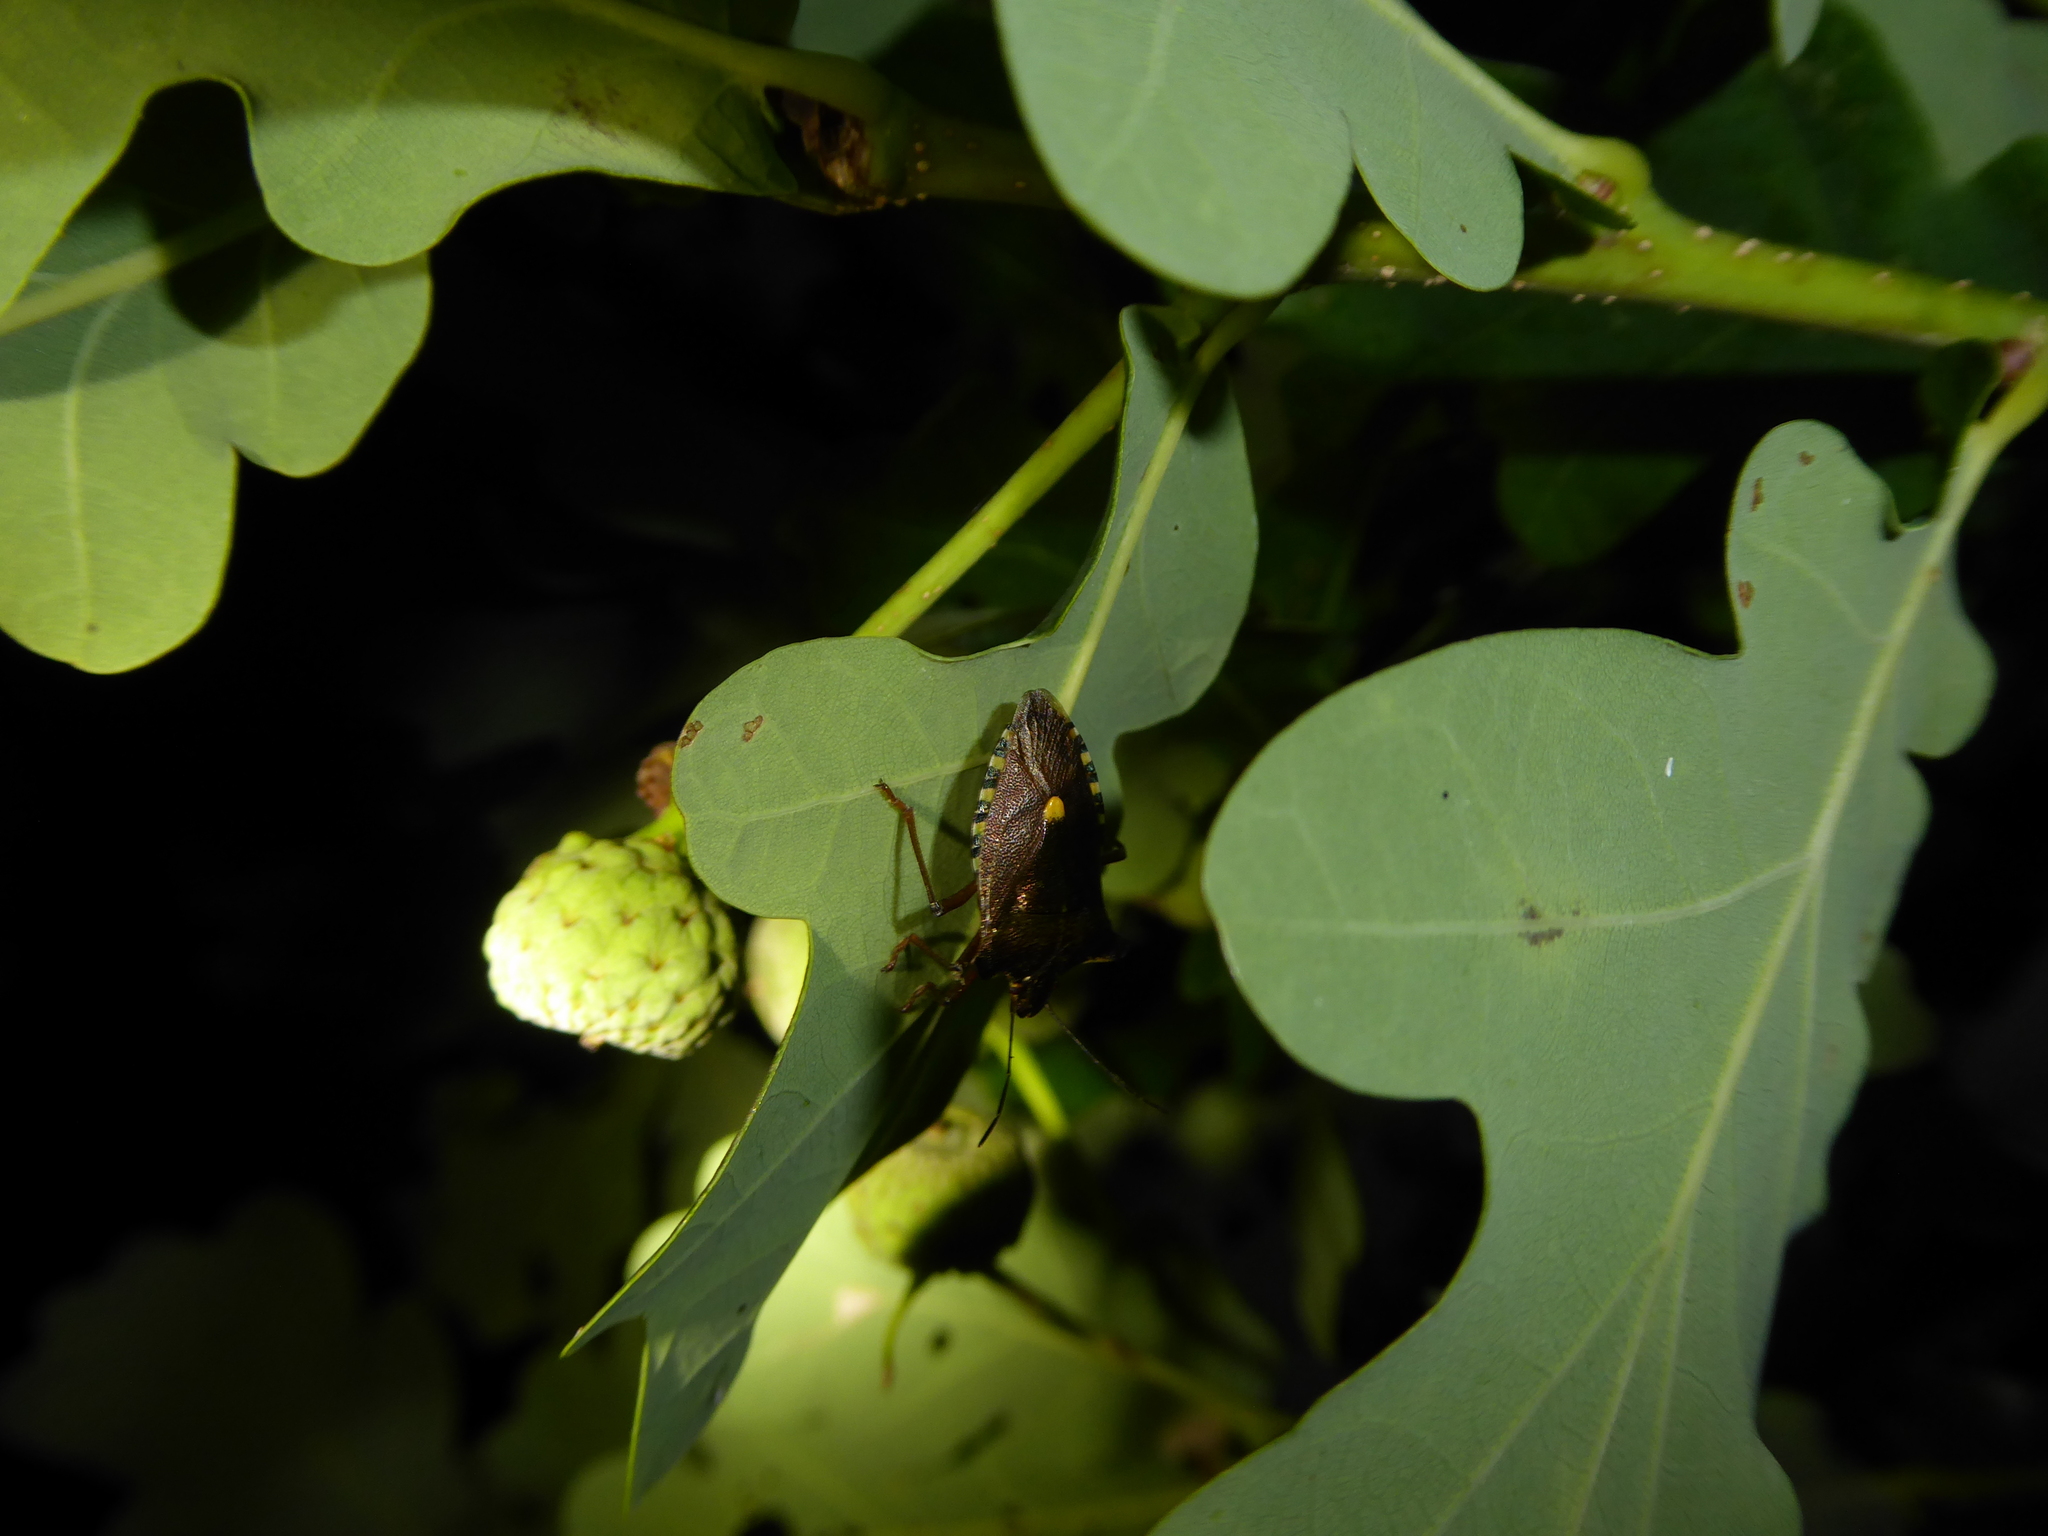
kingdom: Animalia
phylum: Arthropoda
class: Insecta
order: Hemiptera
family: Pentatomidae
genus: Pentatoma
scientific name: Pentatoma rufipes
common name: Forest bug
